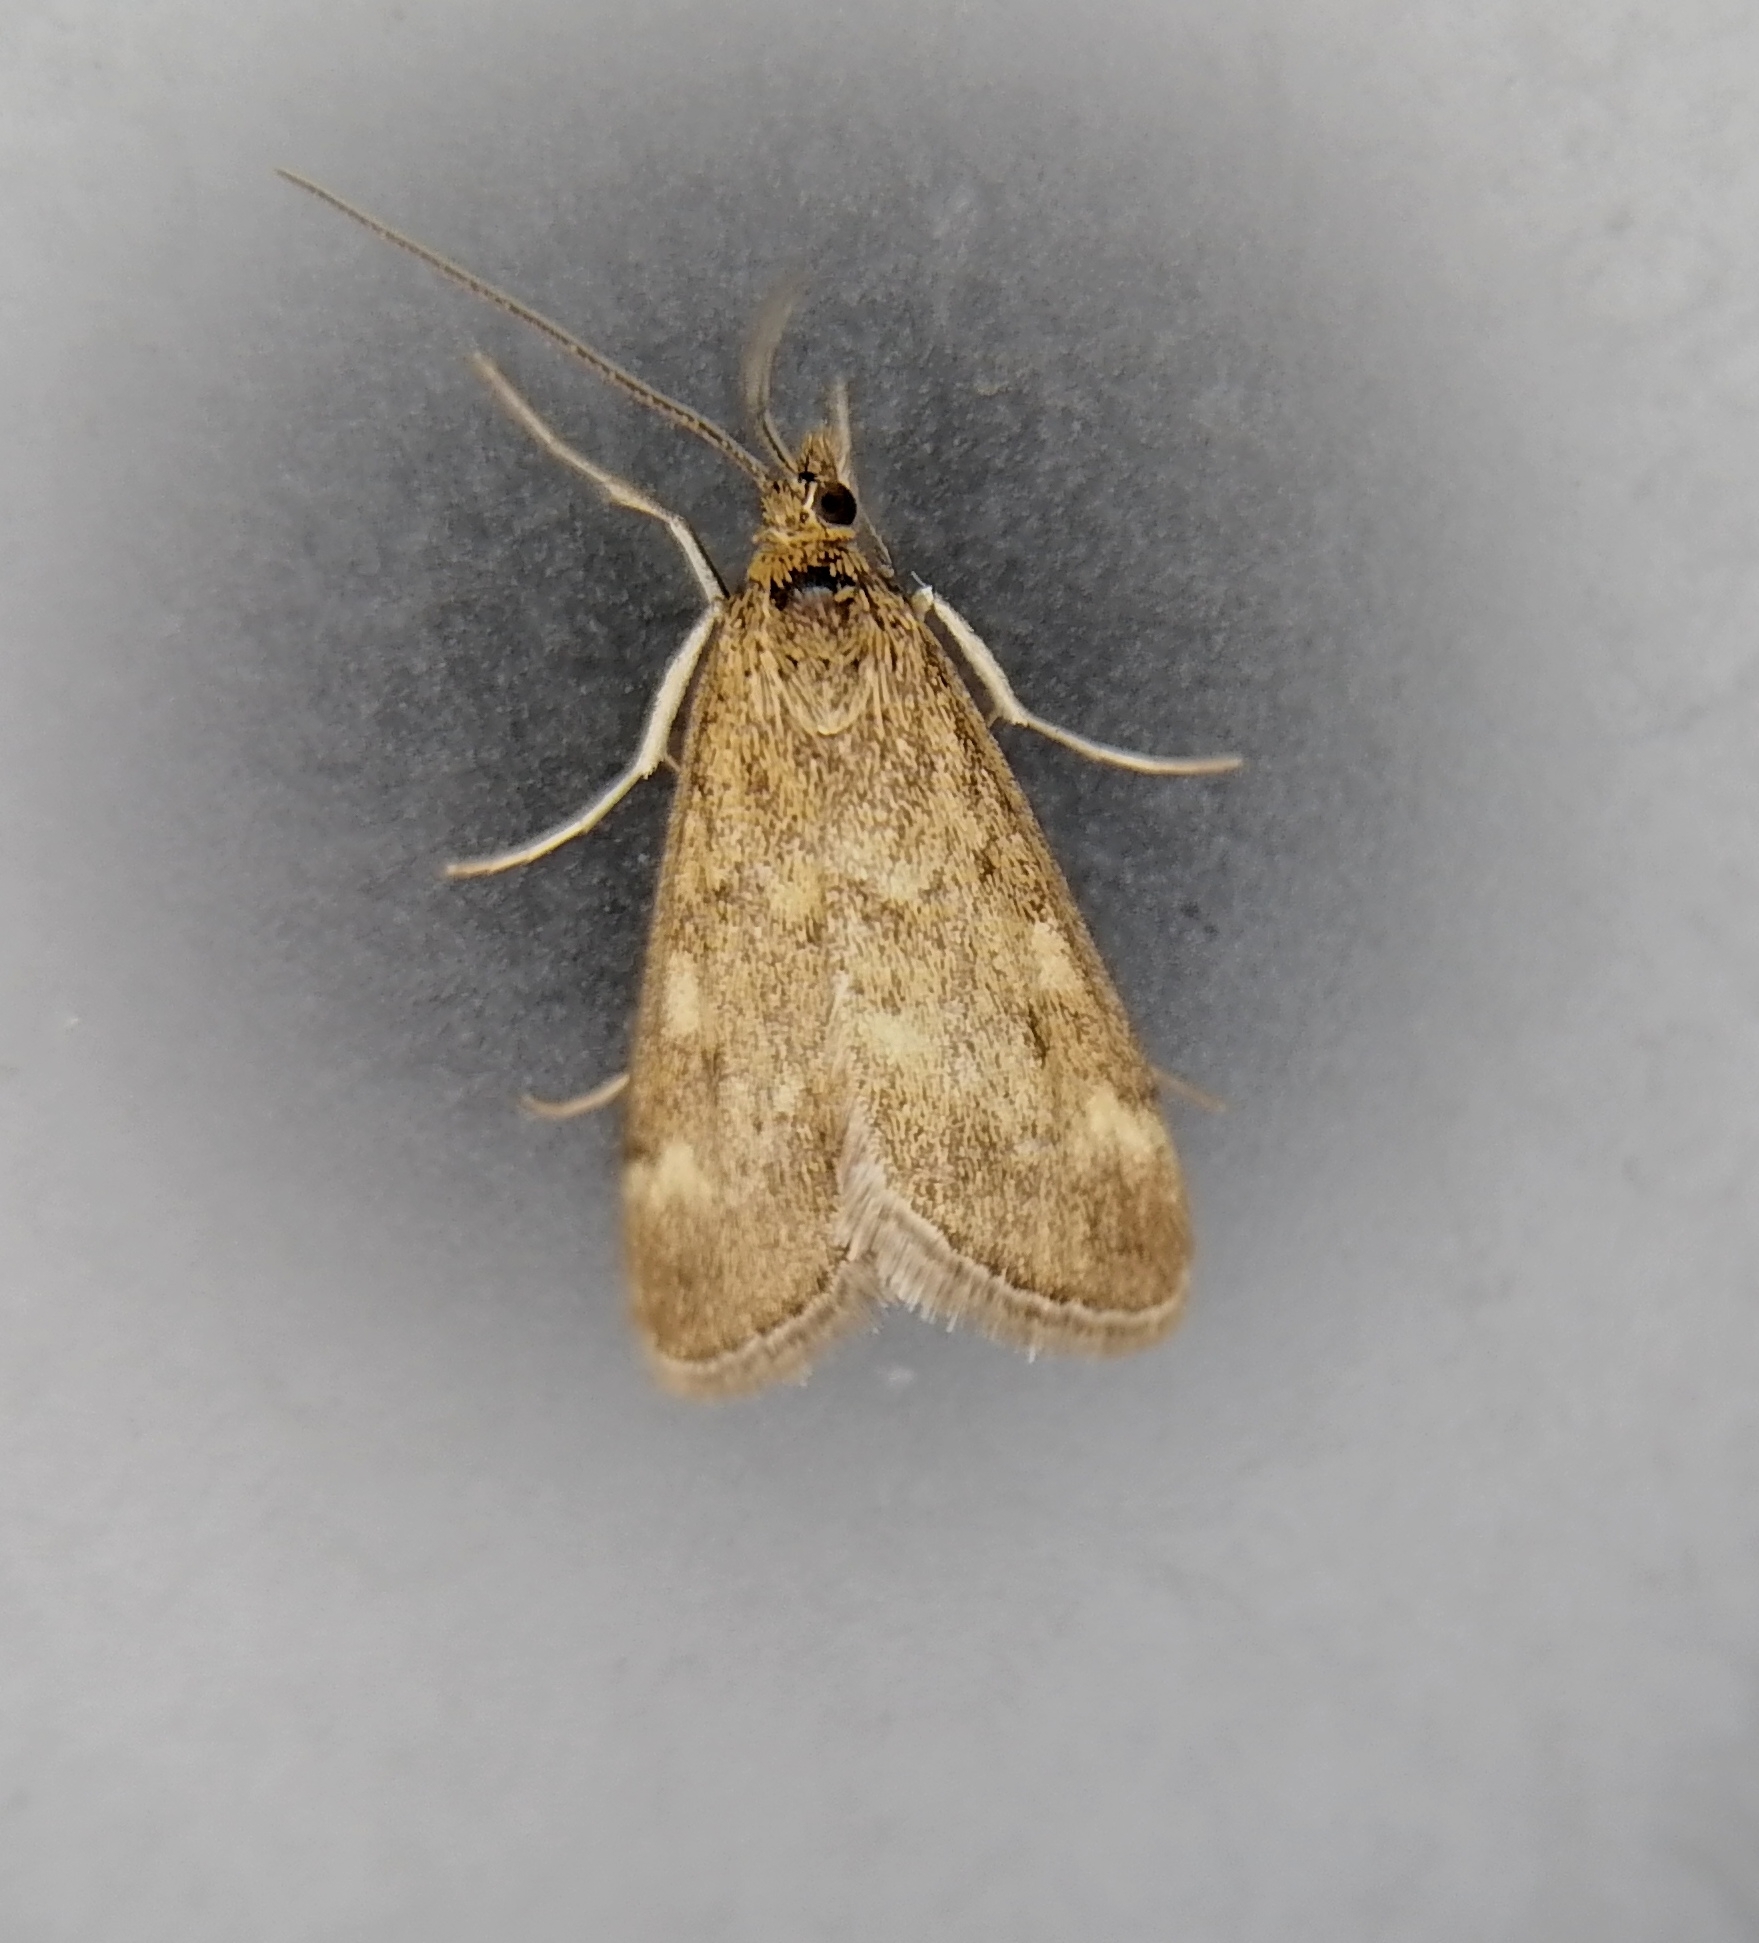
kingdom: Animalia
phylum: Arthropoda
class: Insecta
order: Lepidoptera
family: Crambidae
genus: Pyrausta
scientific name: Pyrausta despicata
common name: Straw-barred pearl
